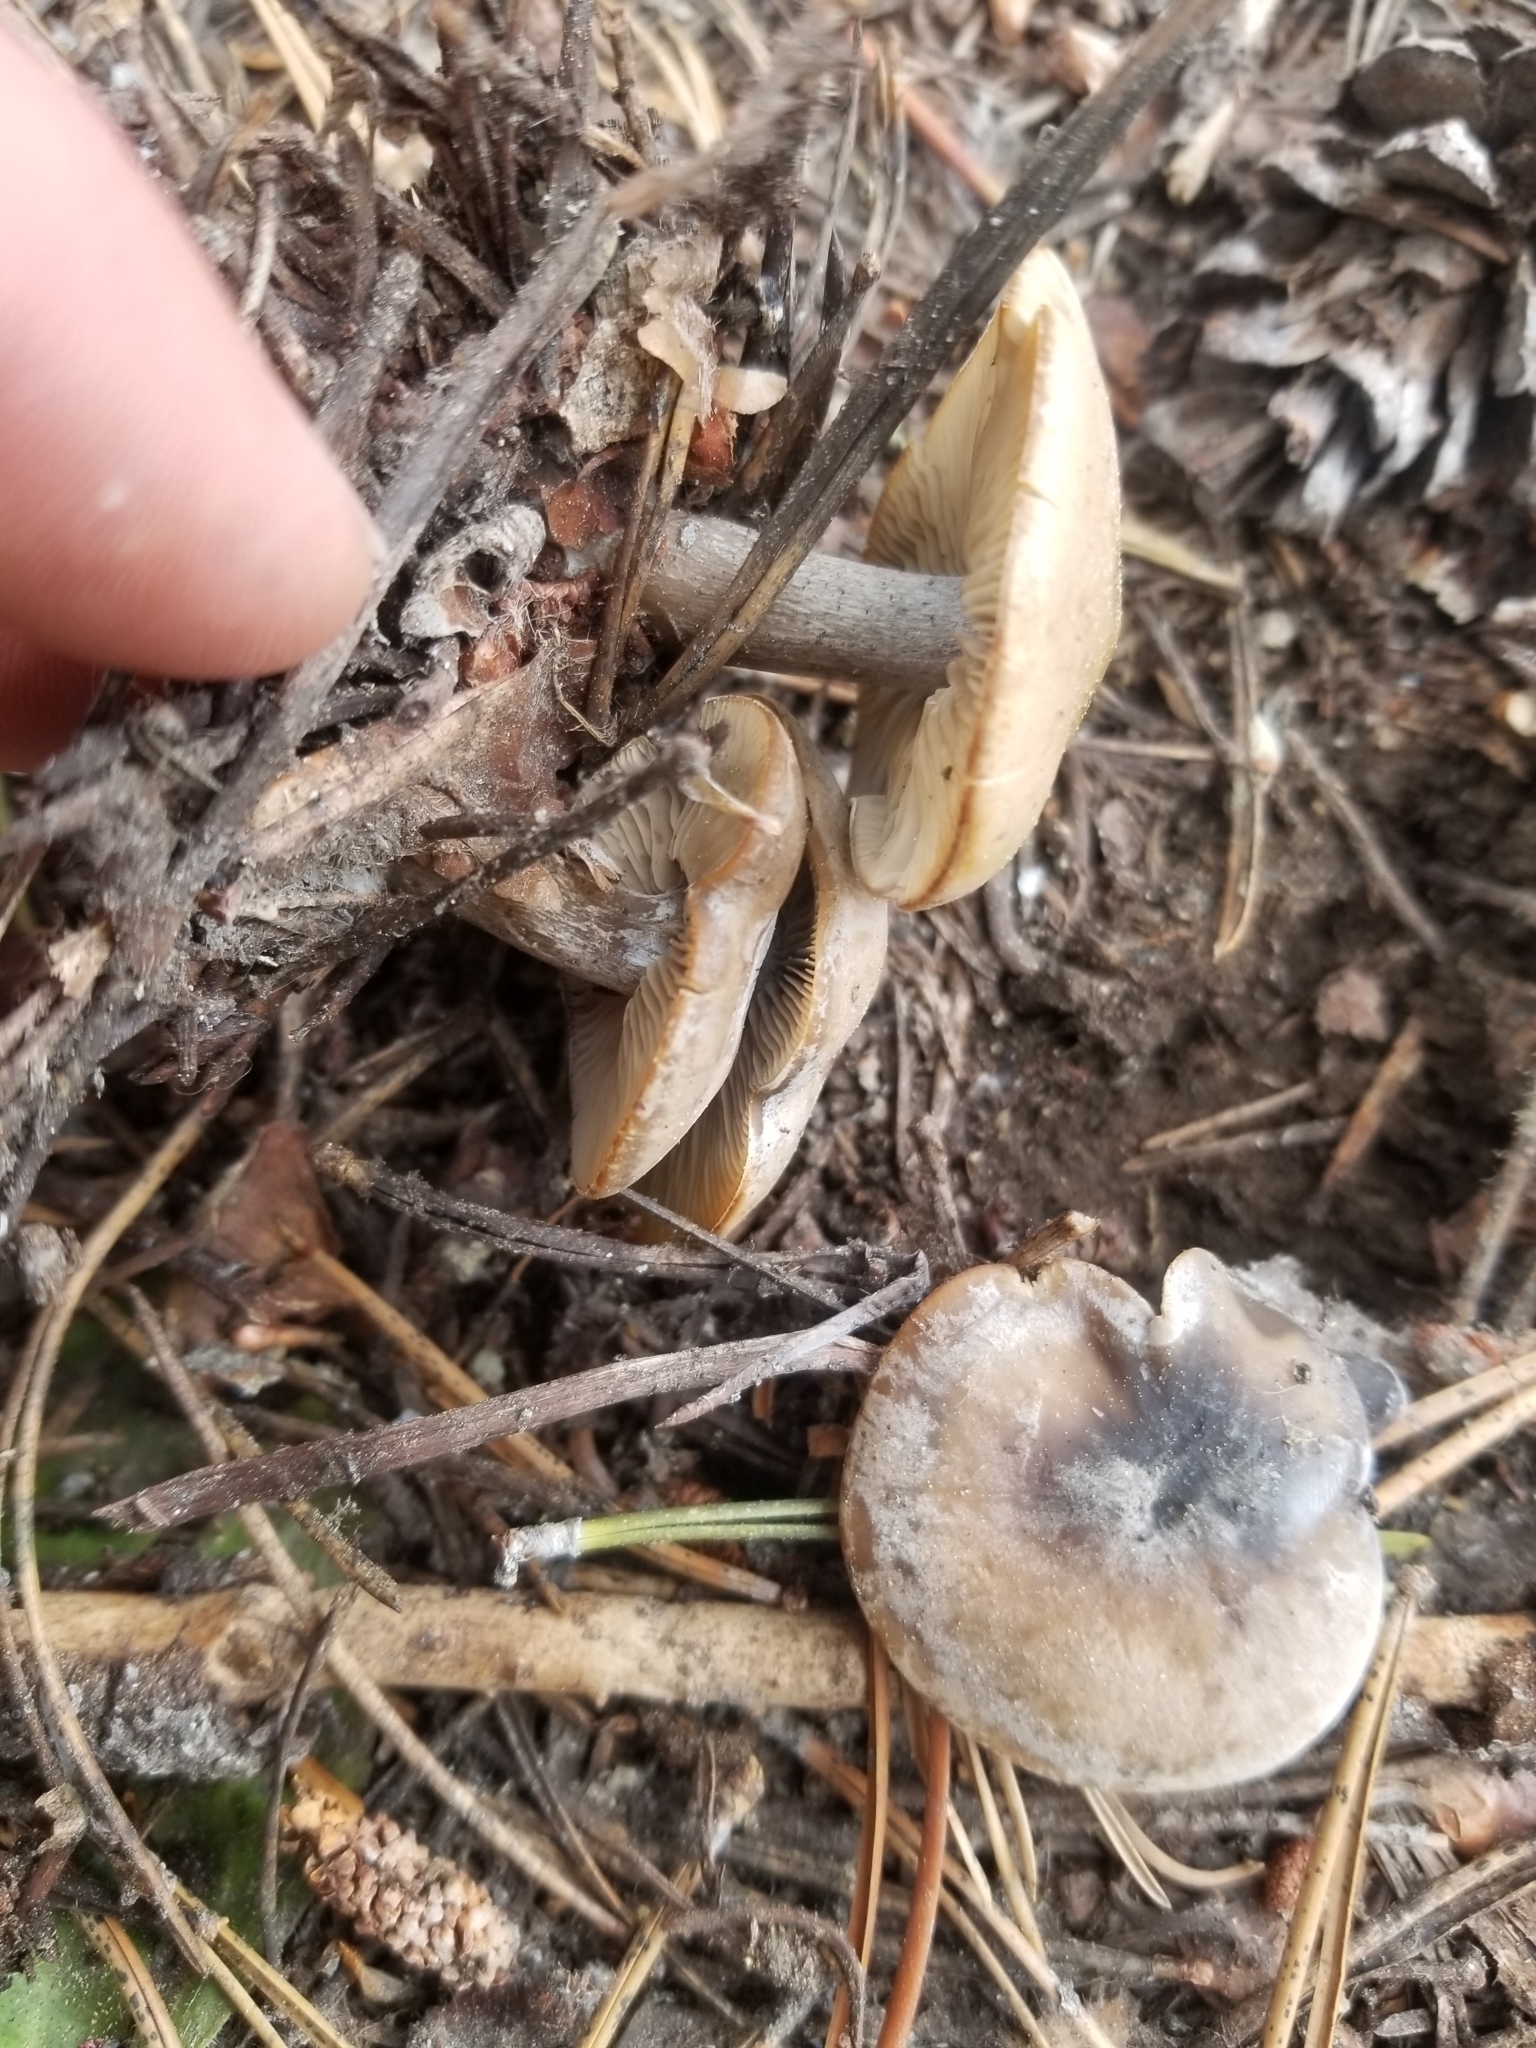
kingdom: Fungi
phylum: Basidiomycota
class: Agaricomycetes
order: Agaricales
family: Tricholomataceae
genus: Clitocybe
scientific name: Clitocybe glacialis
